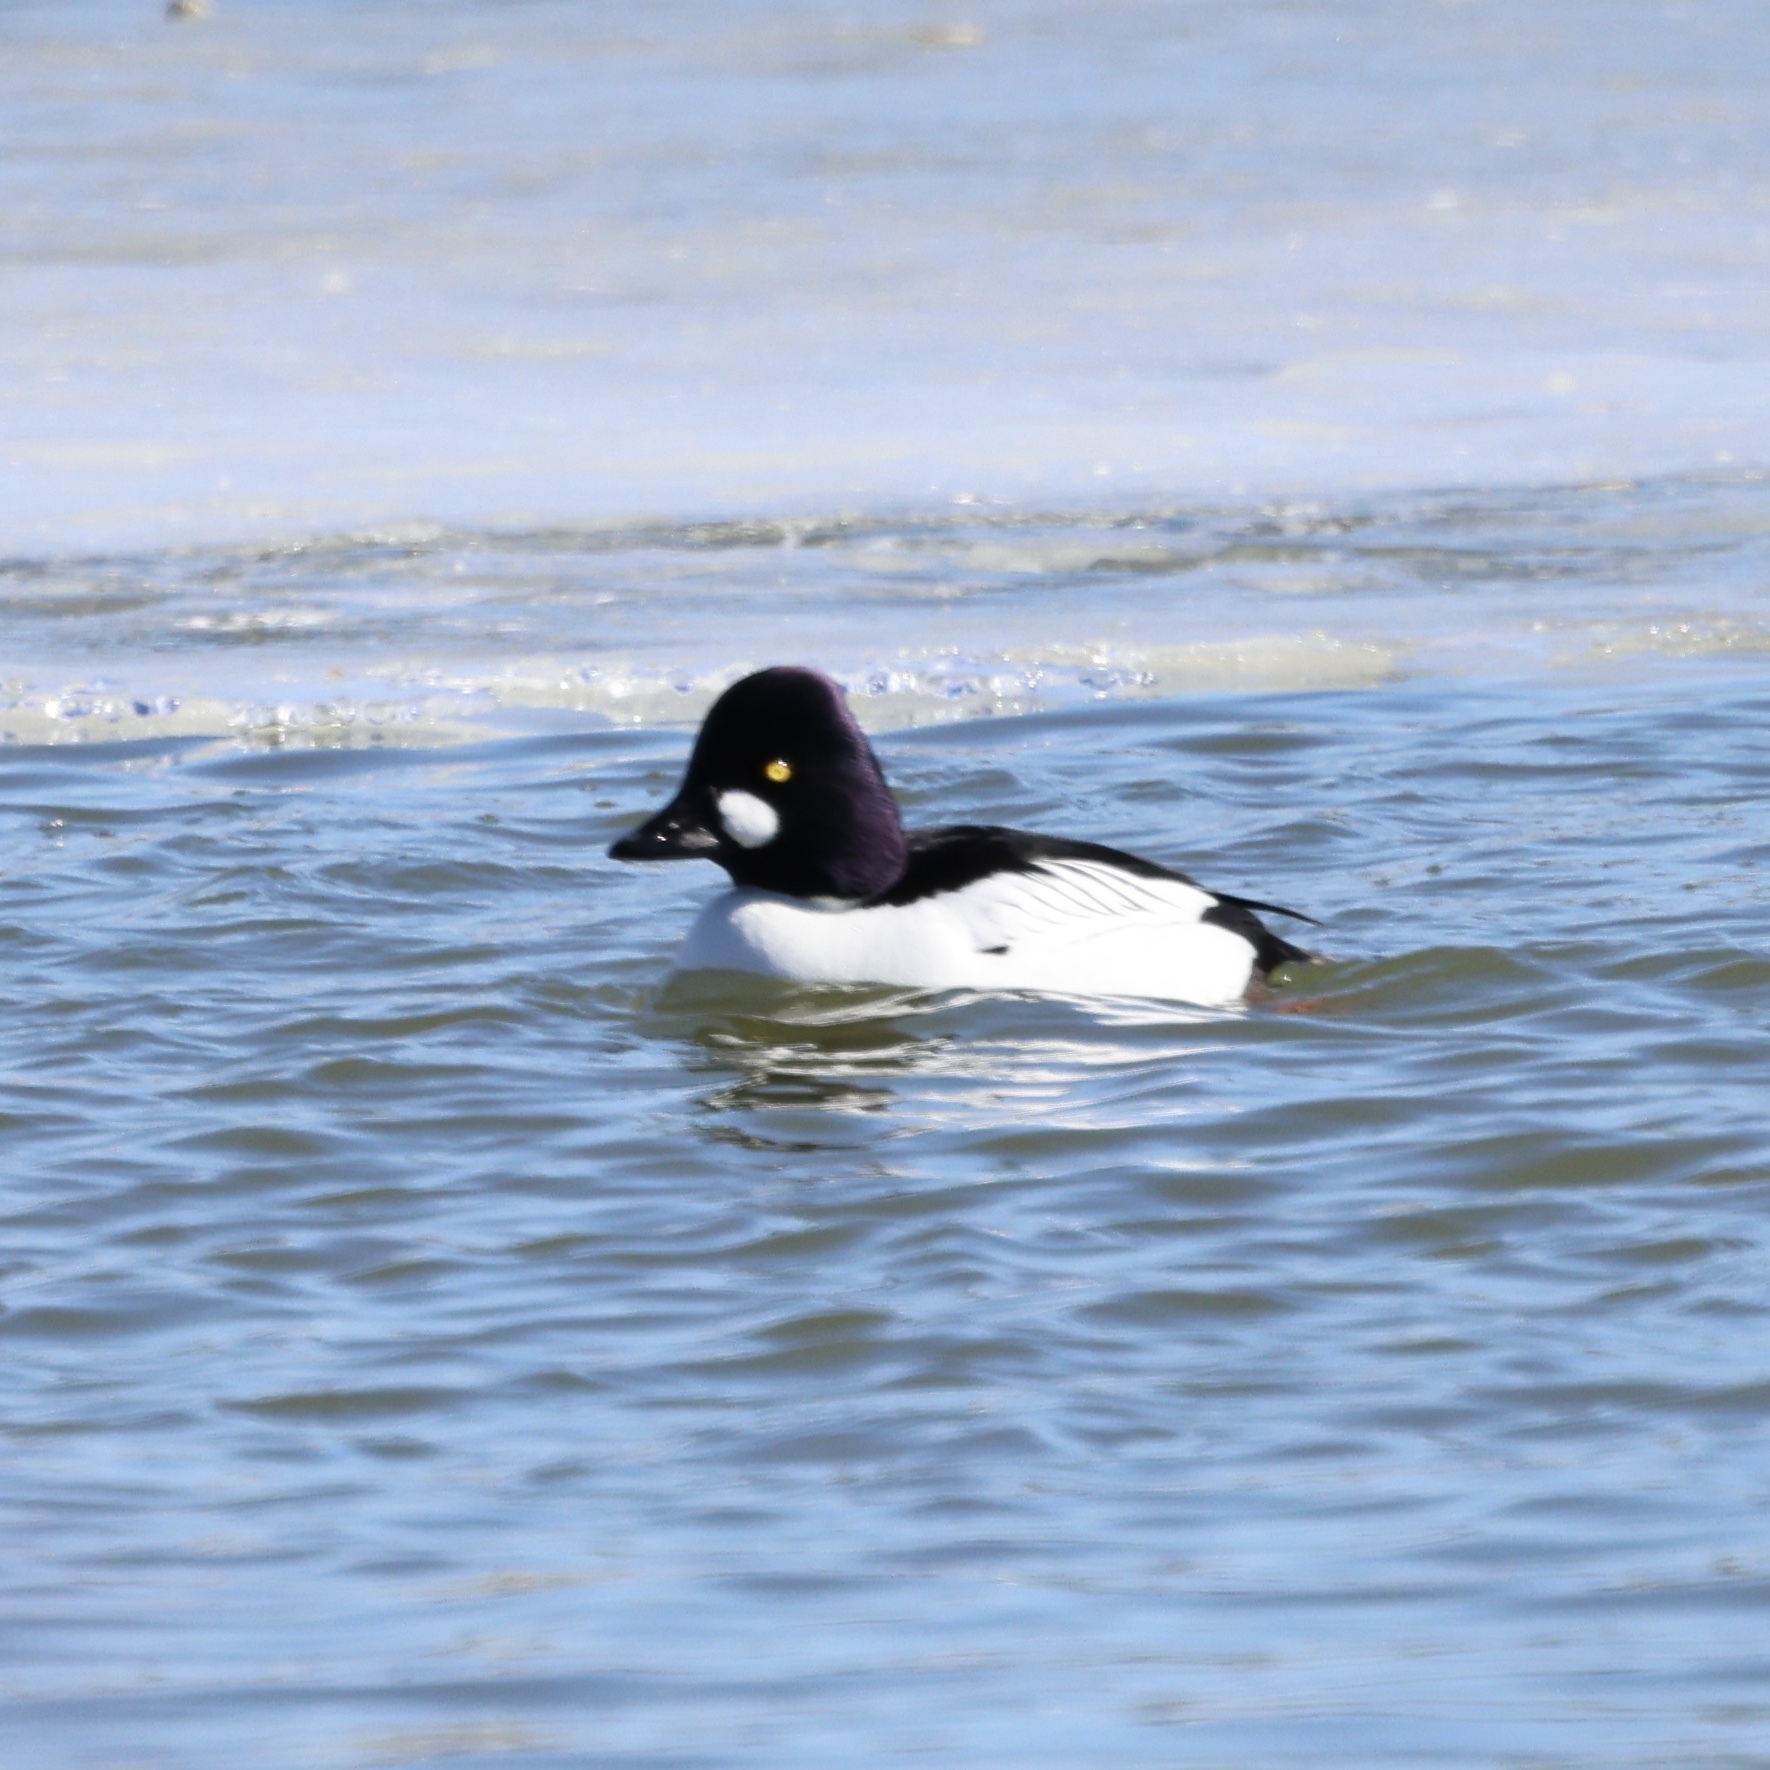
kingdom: Animalia
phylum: Chordata
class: Aves
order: Anseriformes
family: Anatidae
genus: Bucephala
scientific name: Bucephala clangula
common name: Common goldeneye
